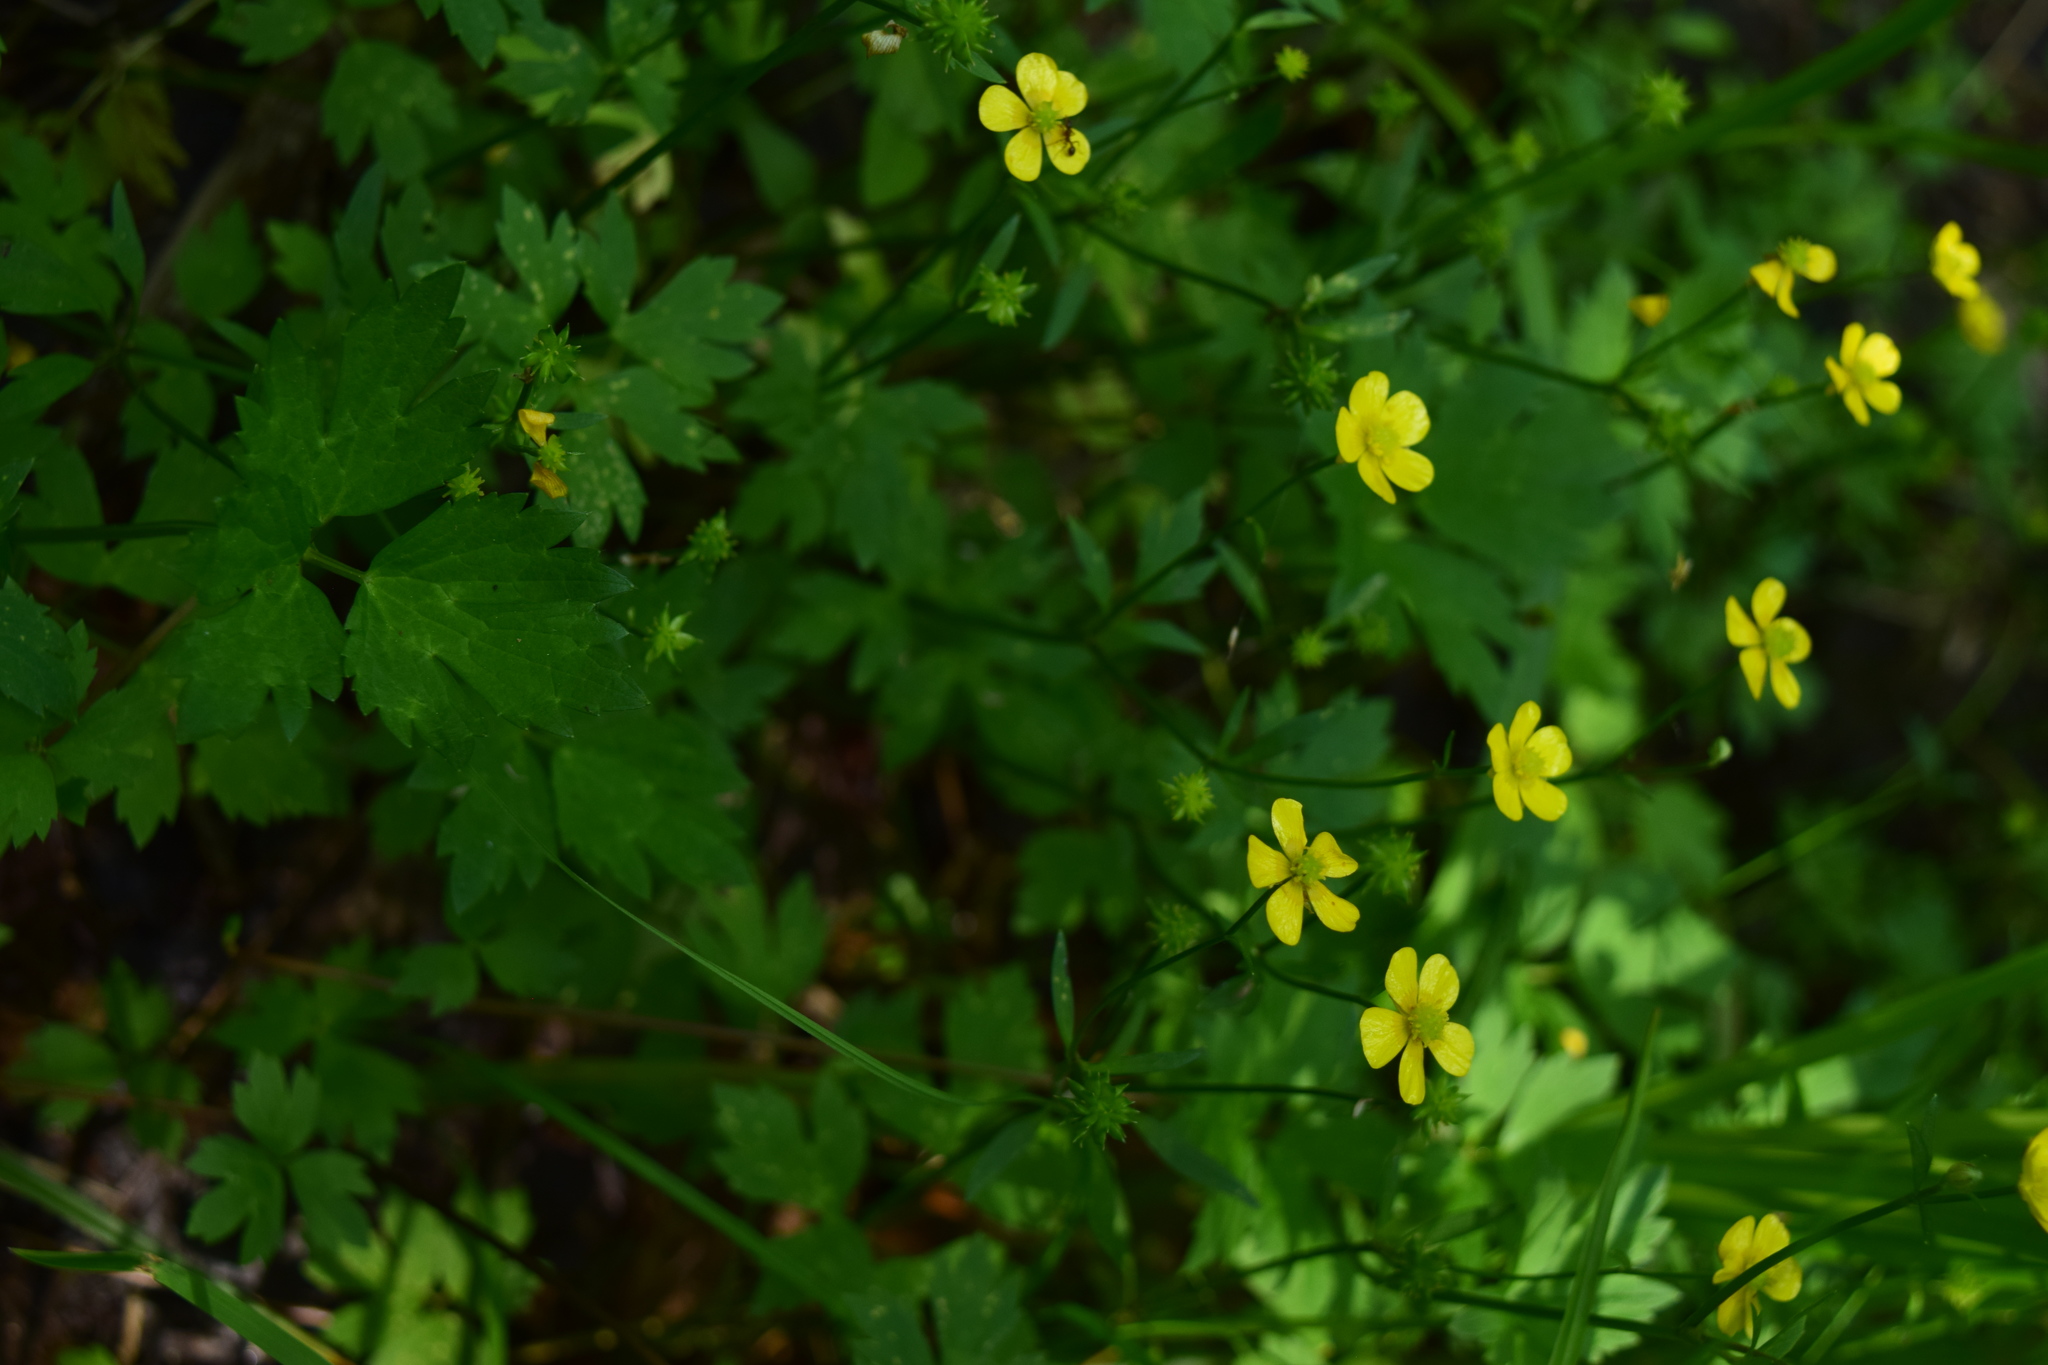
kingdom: Plantae
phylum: Tracheophyta
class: Magnoliopsida
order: Ranunculales
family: Ranunculaceae
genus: Ranunculus
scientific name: Ranunculus repens
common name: Creeping buttercup
